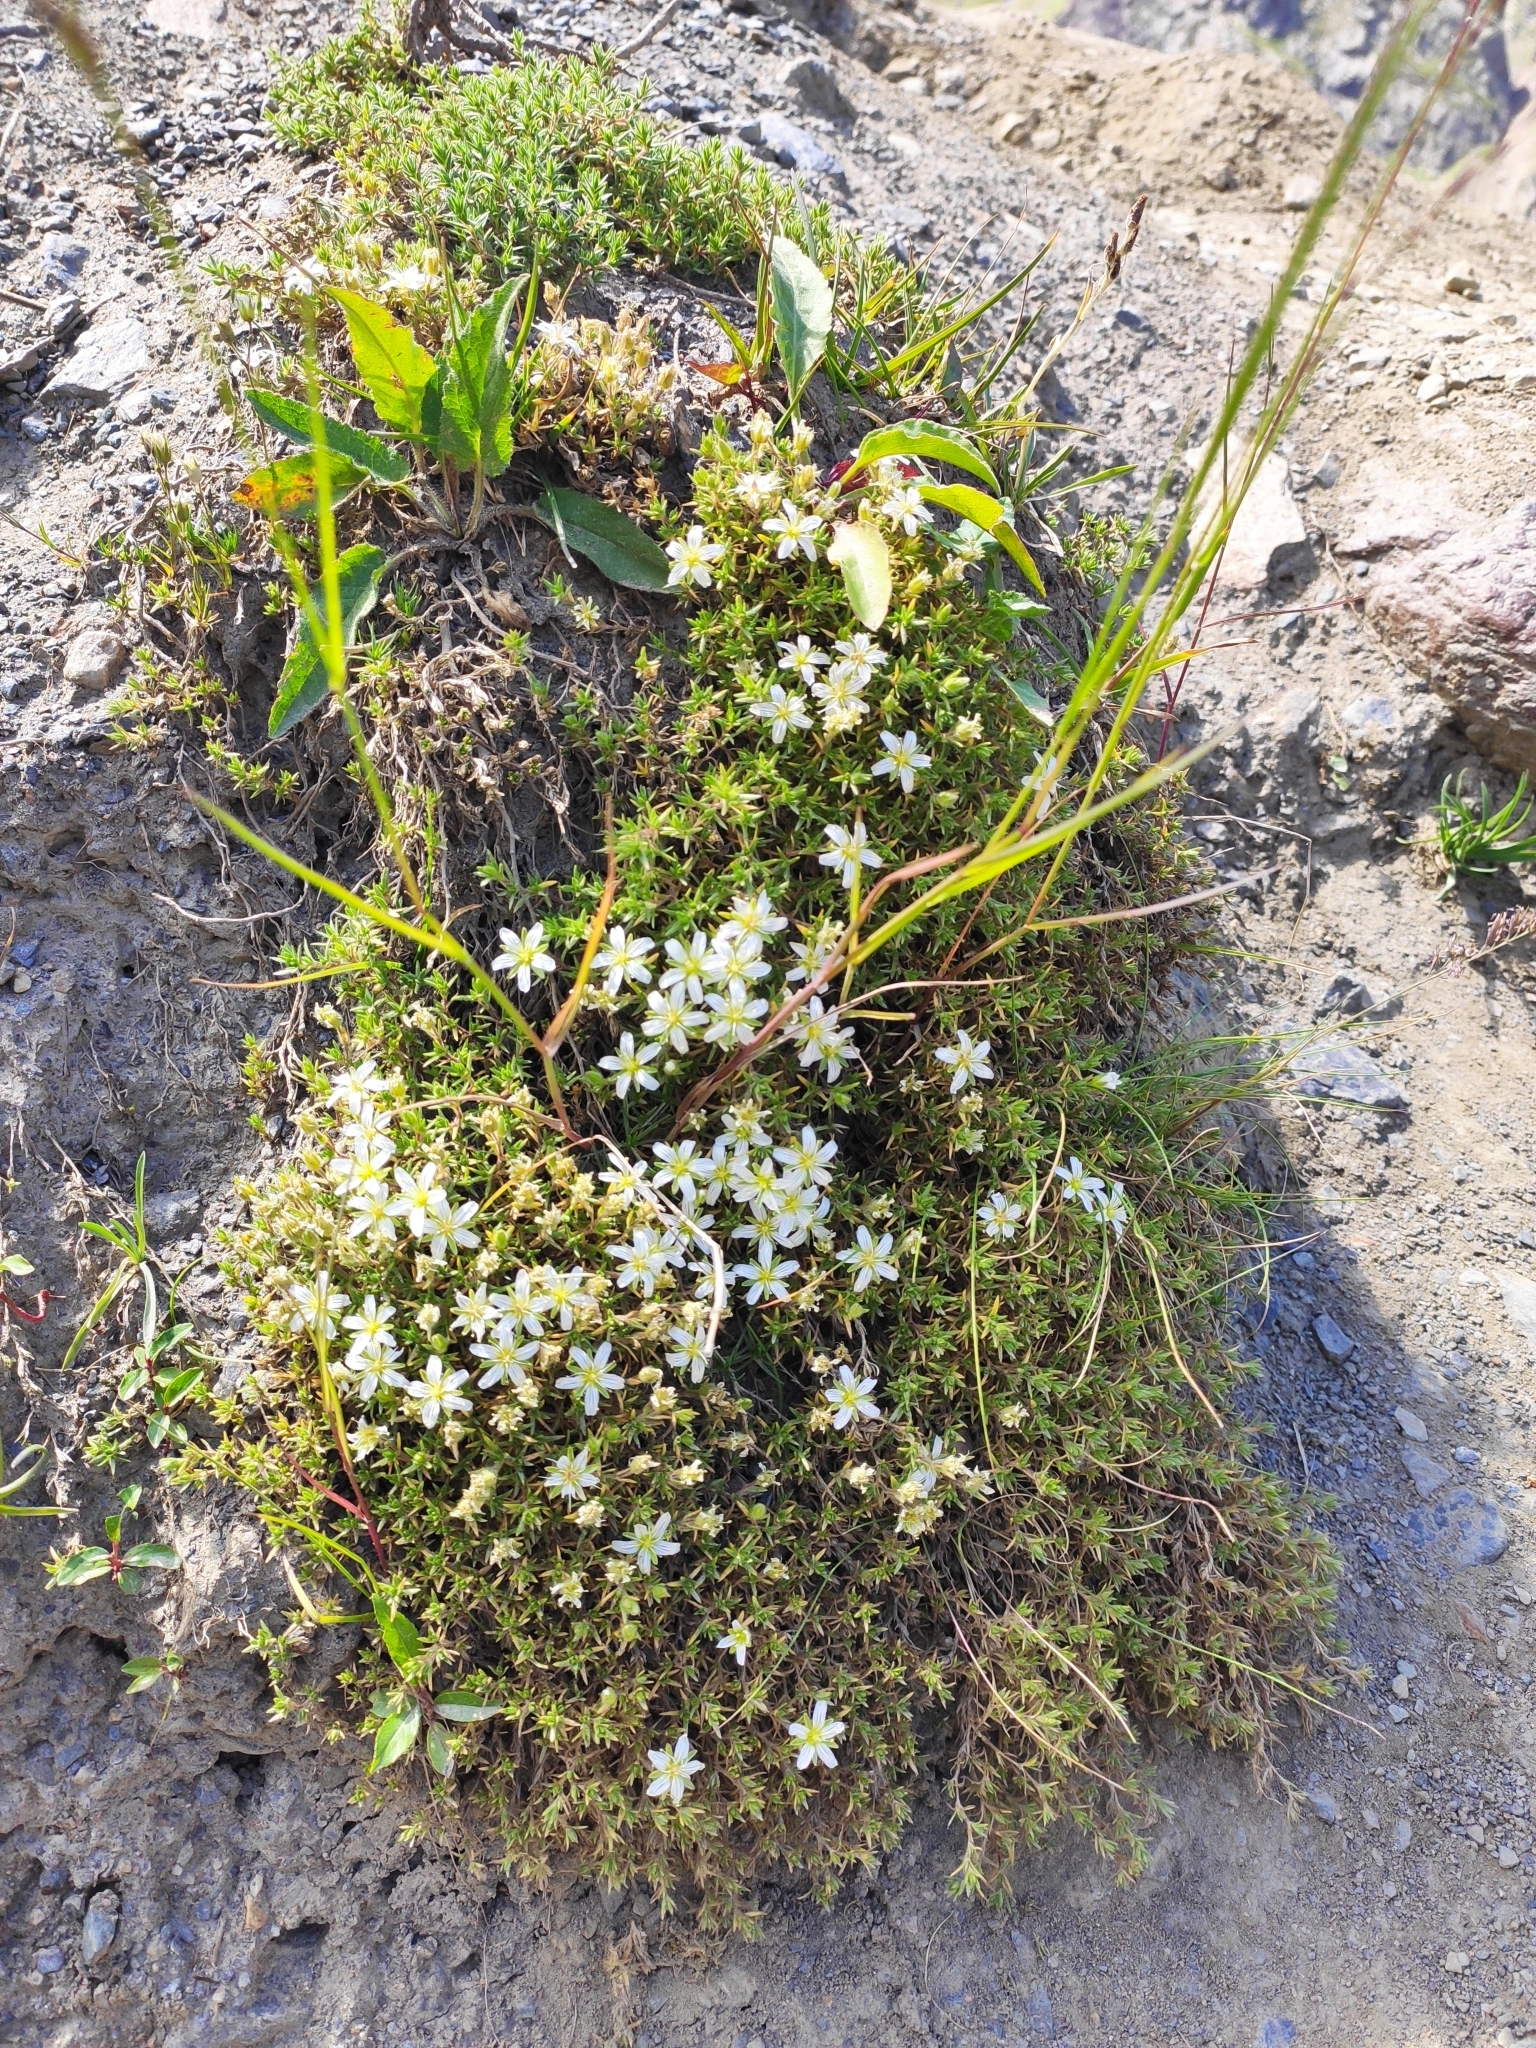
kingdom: Plantae
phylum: Tracheophyta
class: Magnoliopsida
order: Caryophyllales
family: Caryophyllaceae
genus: Pseudocherleria
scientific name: Pseudocherleria imbricata
